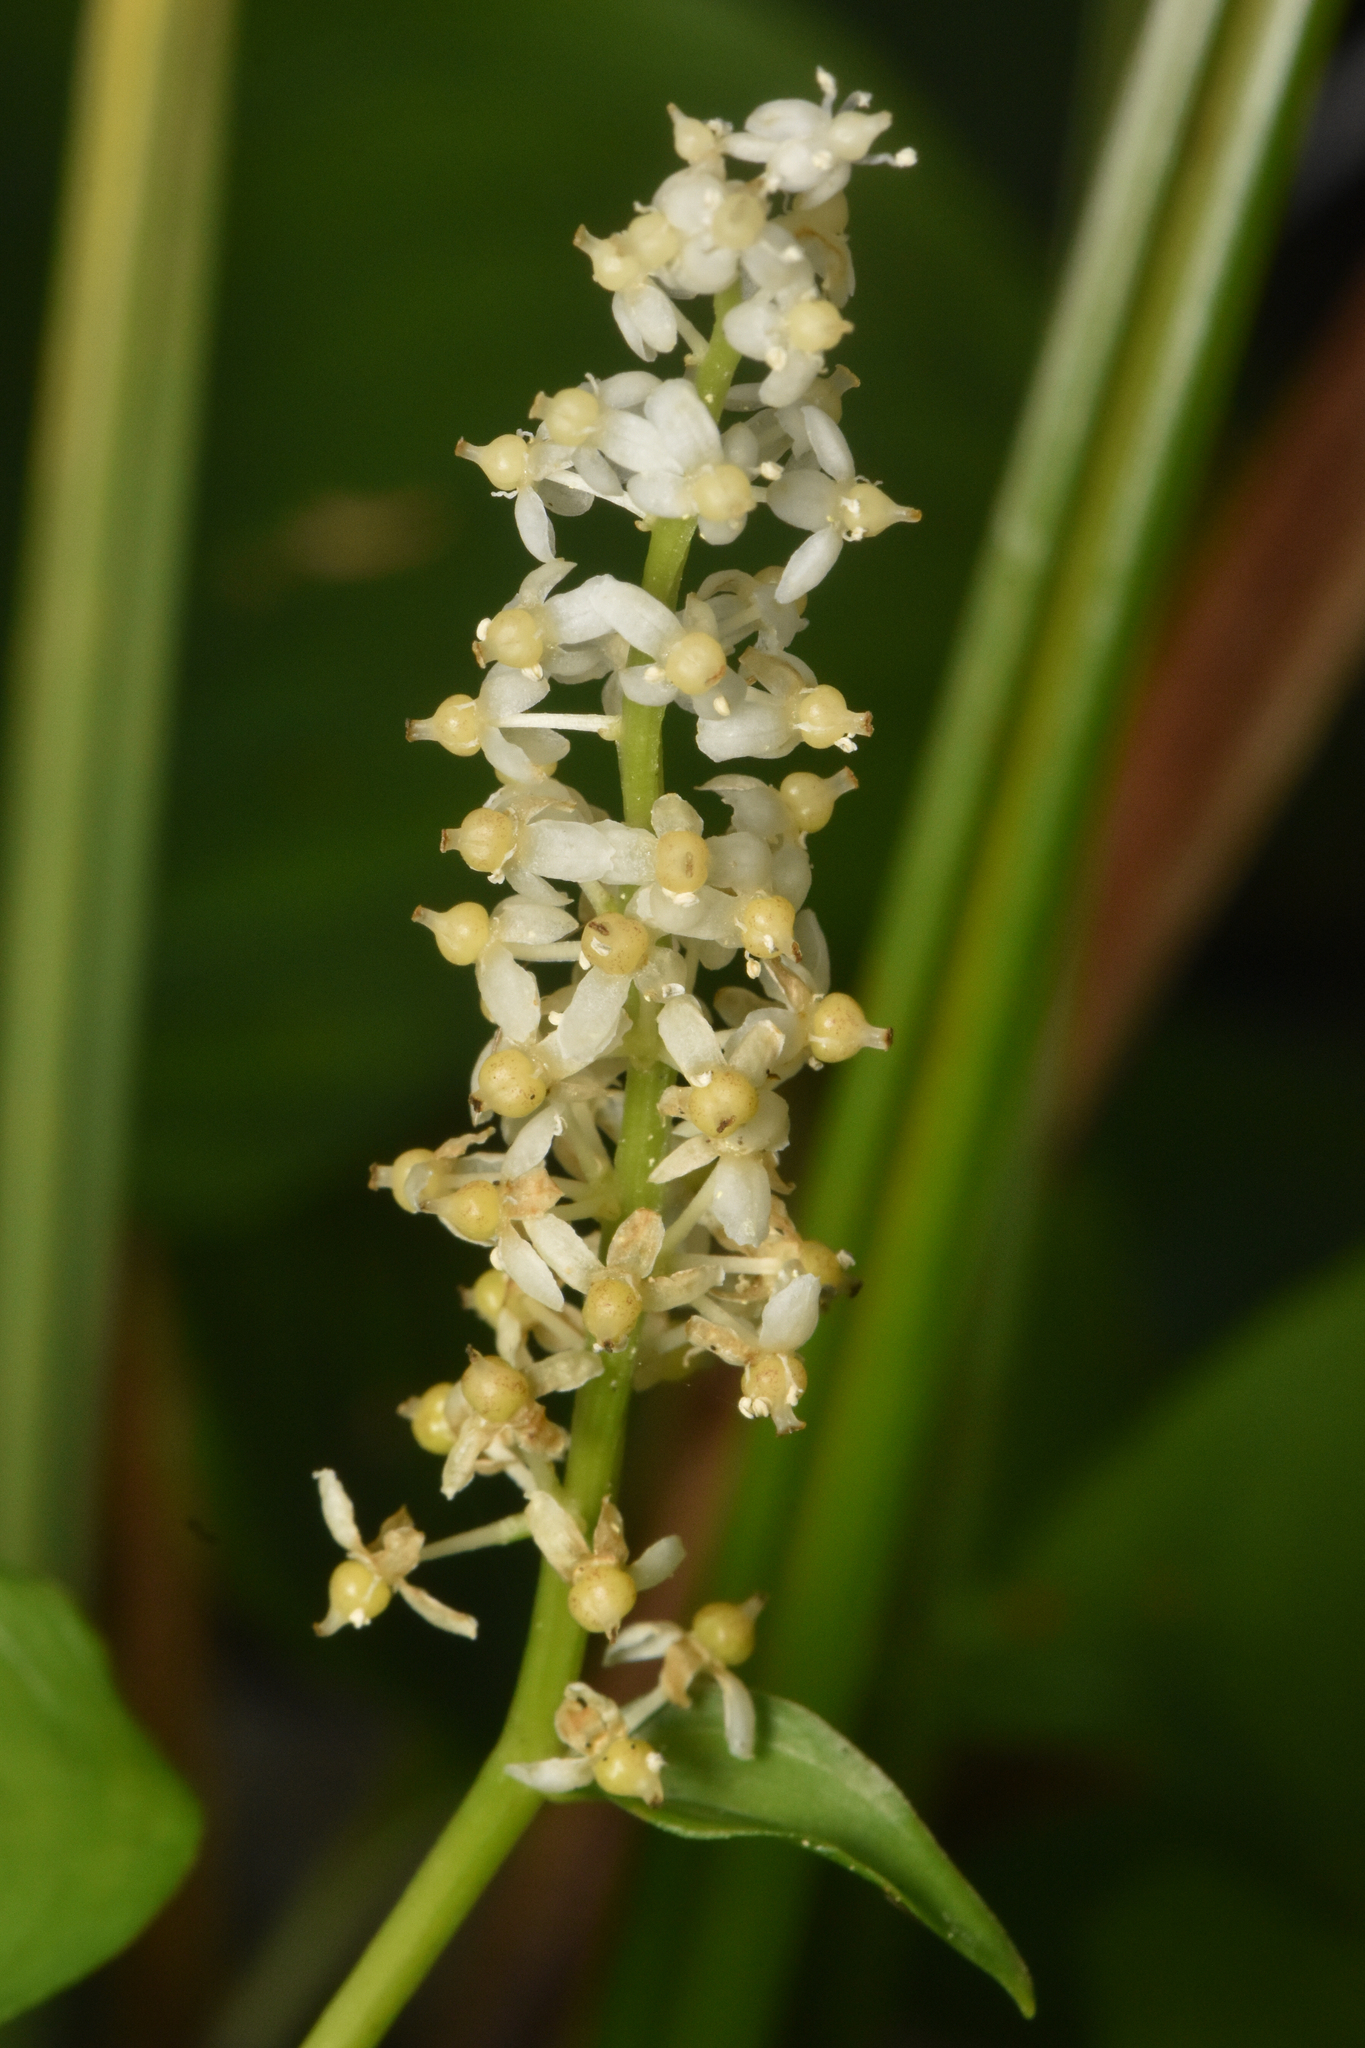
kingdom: Plantae
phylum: Tracheophyta
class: Liliopsida
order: Asparagales
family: Asparagaceae
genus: Maianthemum
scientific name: Maianthemum dilatatum
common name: False lily-of-the-valley
